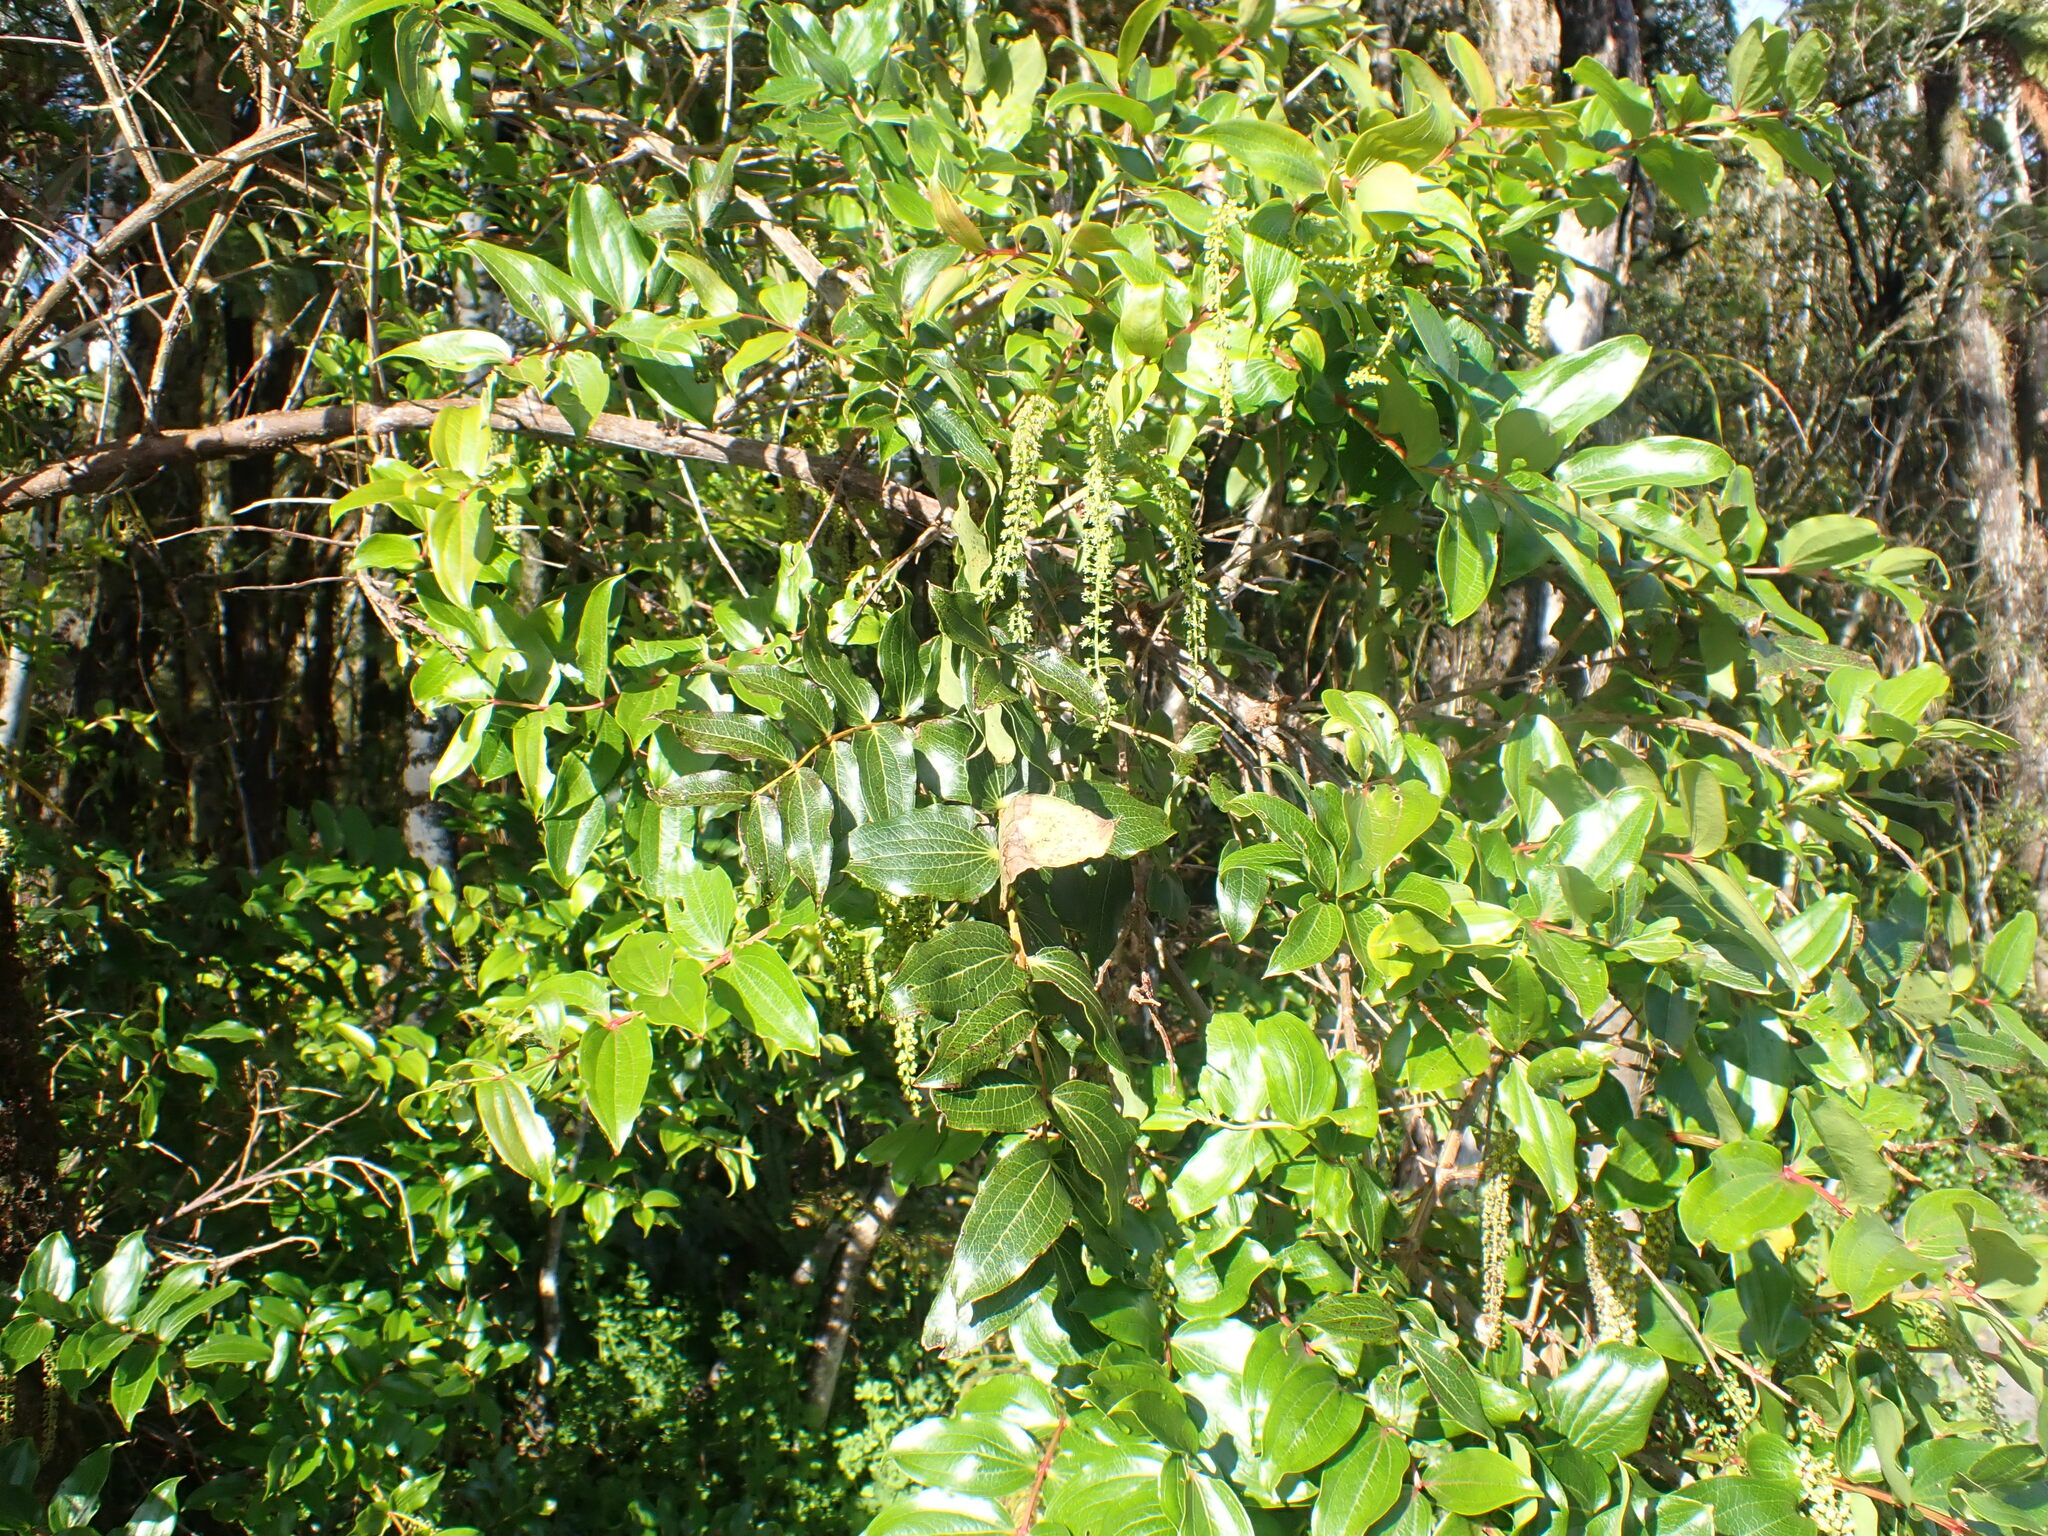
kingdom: Plantae
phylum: Tracheophyta
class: Magnoliopsida
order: Cucurbitales
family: Coriariaceae
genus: Coriaria
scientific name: Coriaria arborea
